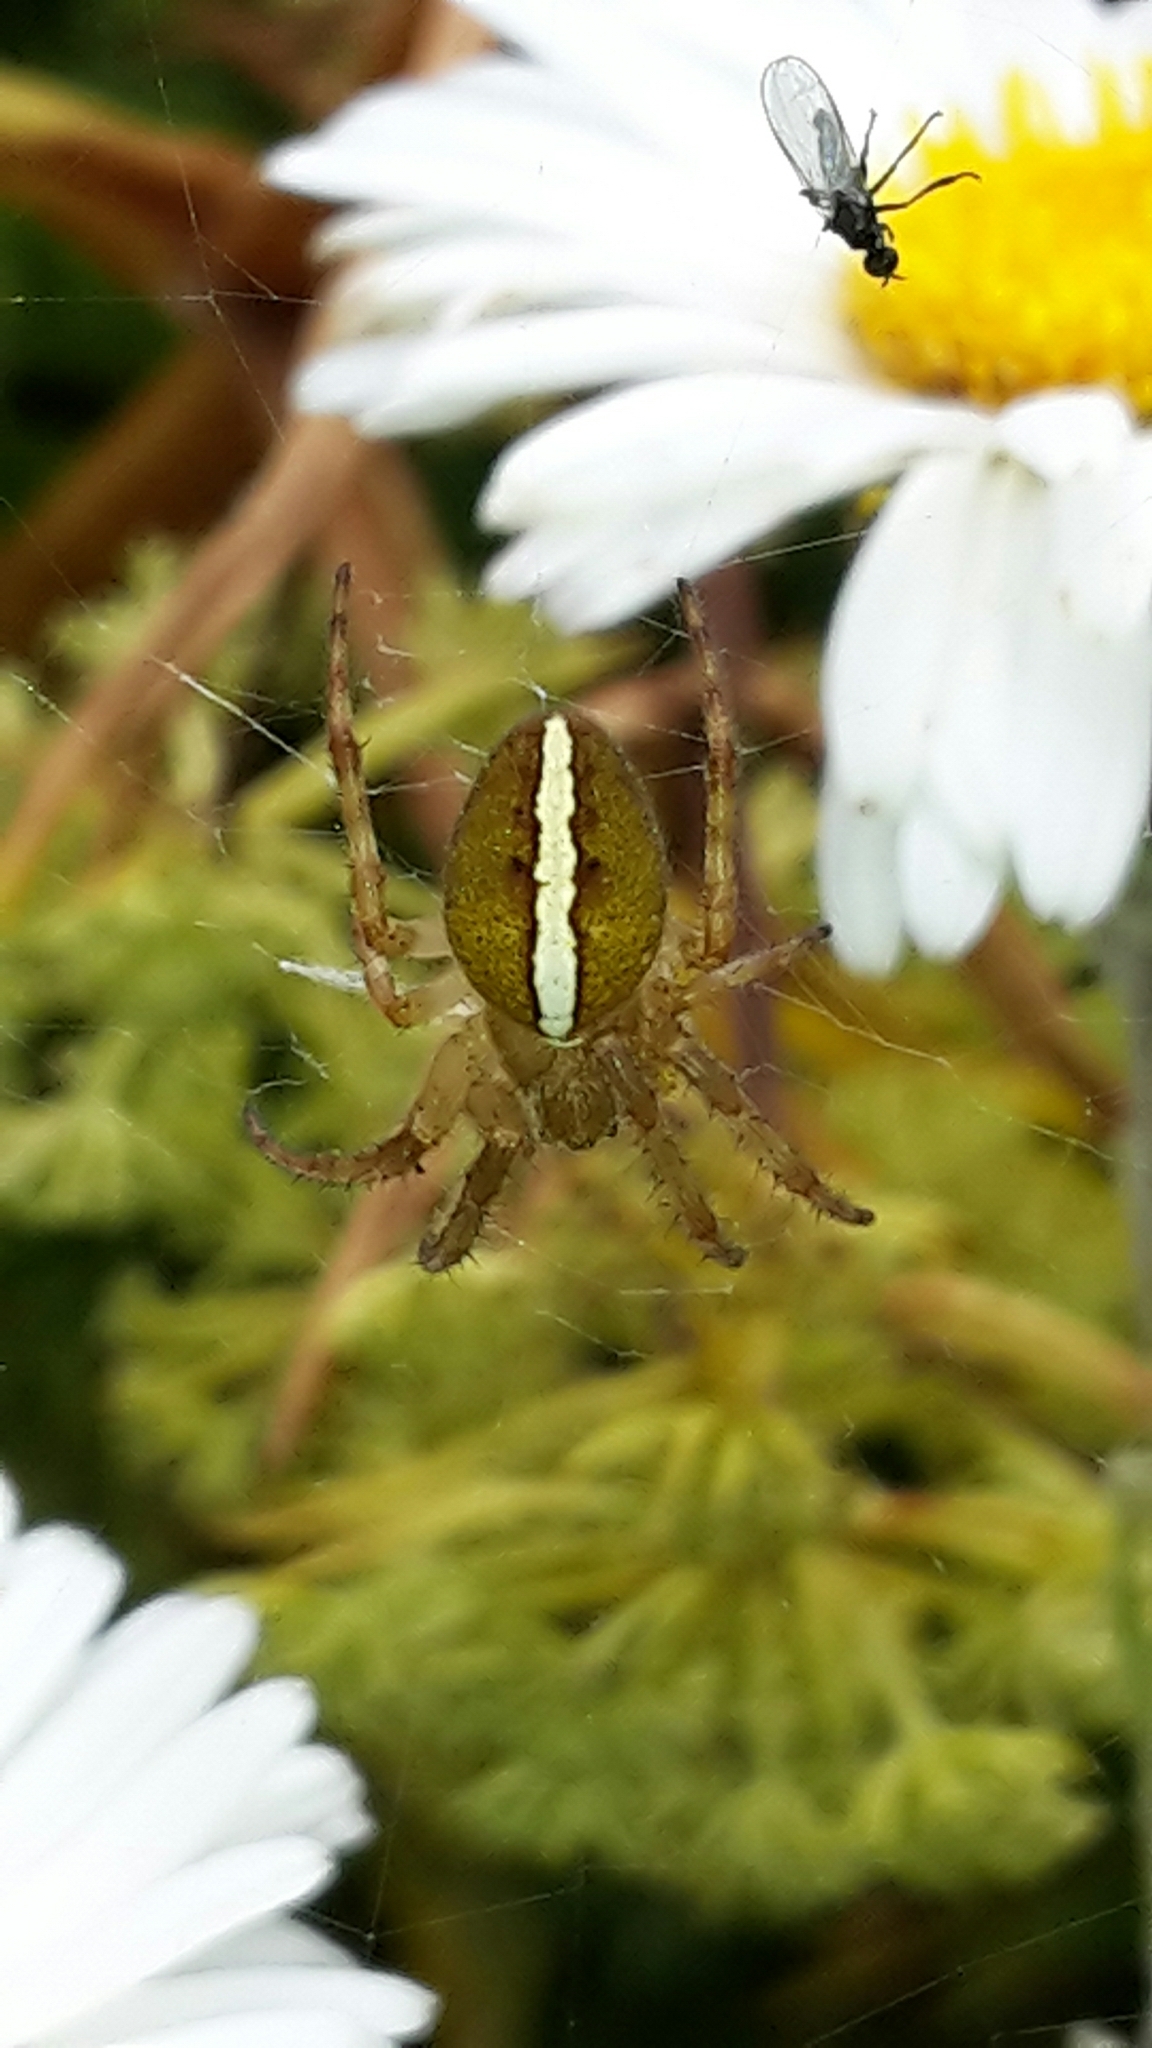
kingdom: Animalia
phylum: Arthropoda
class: Arachnida
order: Araneae
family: Araneidae
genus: Colaranea
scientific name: Colaranea brunnea
